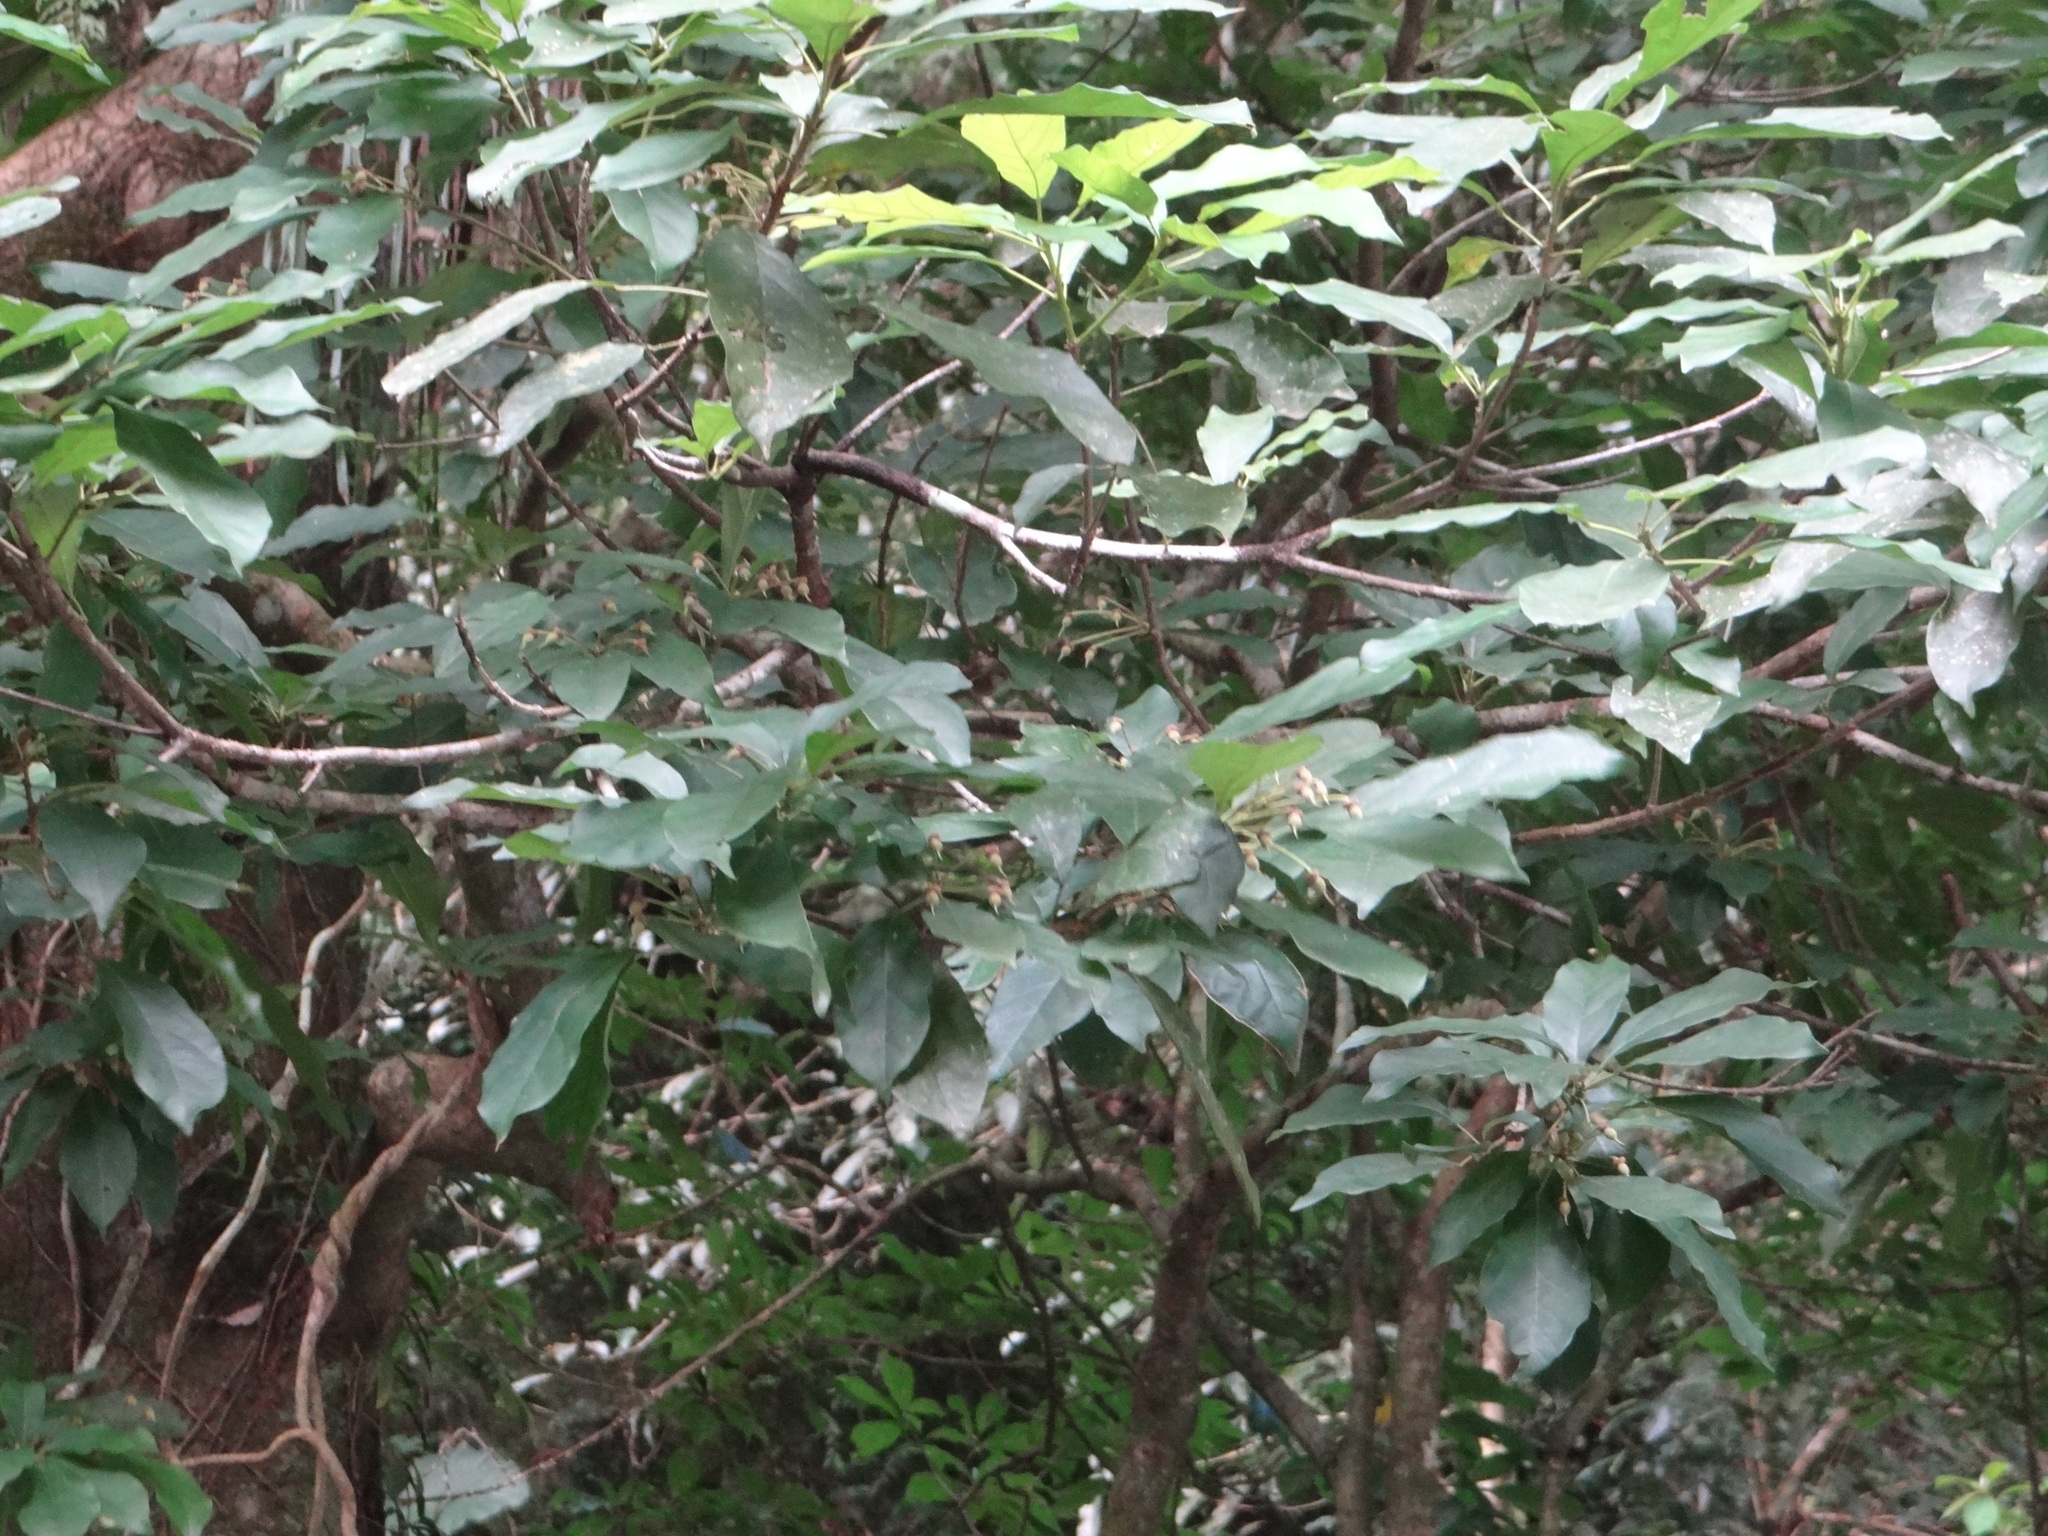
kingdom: Plantae
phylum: Tracheophyta
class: Magnoliopsida
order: Oxalidales
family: Elaeocarpaceae
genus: Sloanea
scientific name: Sloanea dasycarpa
